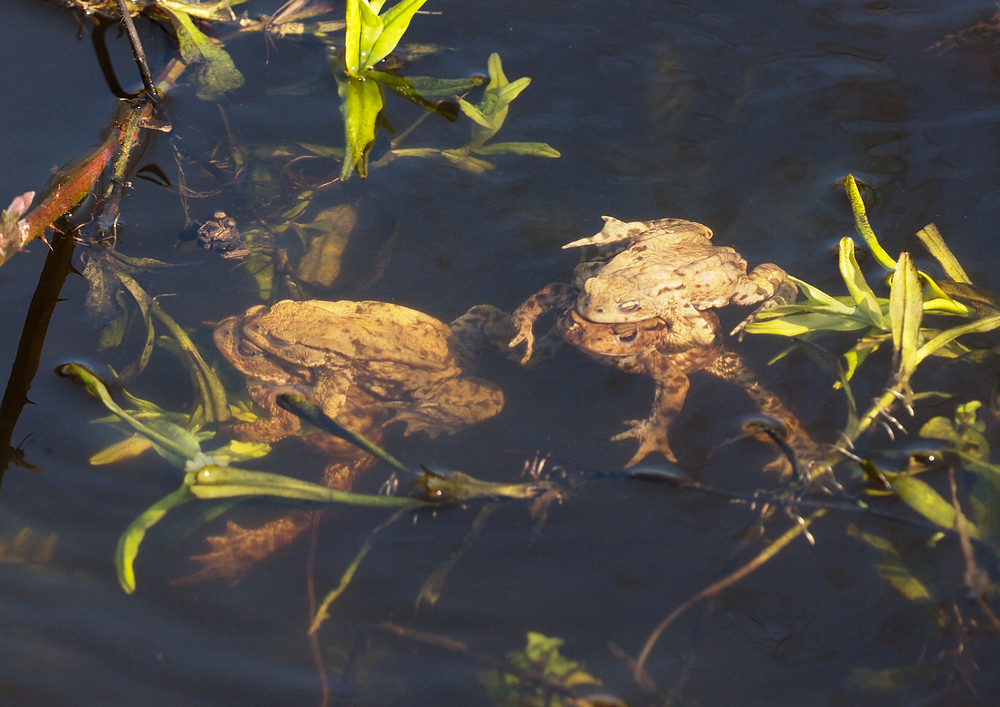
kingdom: Animalia
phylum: Chordata
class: Amphibia
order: Anura
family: Bufonidae
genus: Bufo
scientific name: Bufo bufo
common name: Common toad
